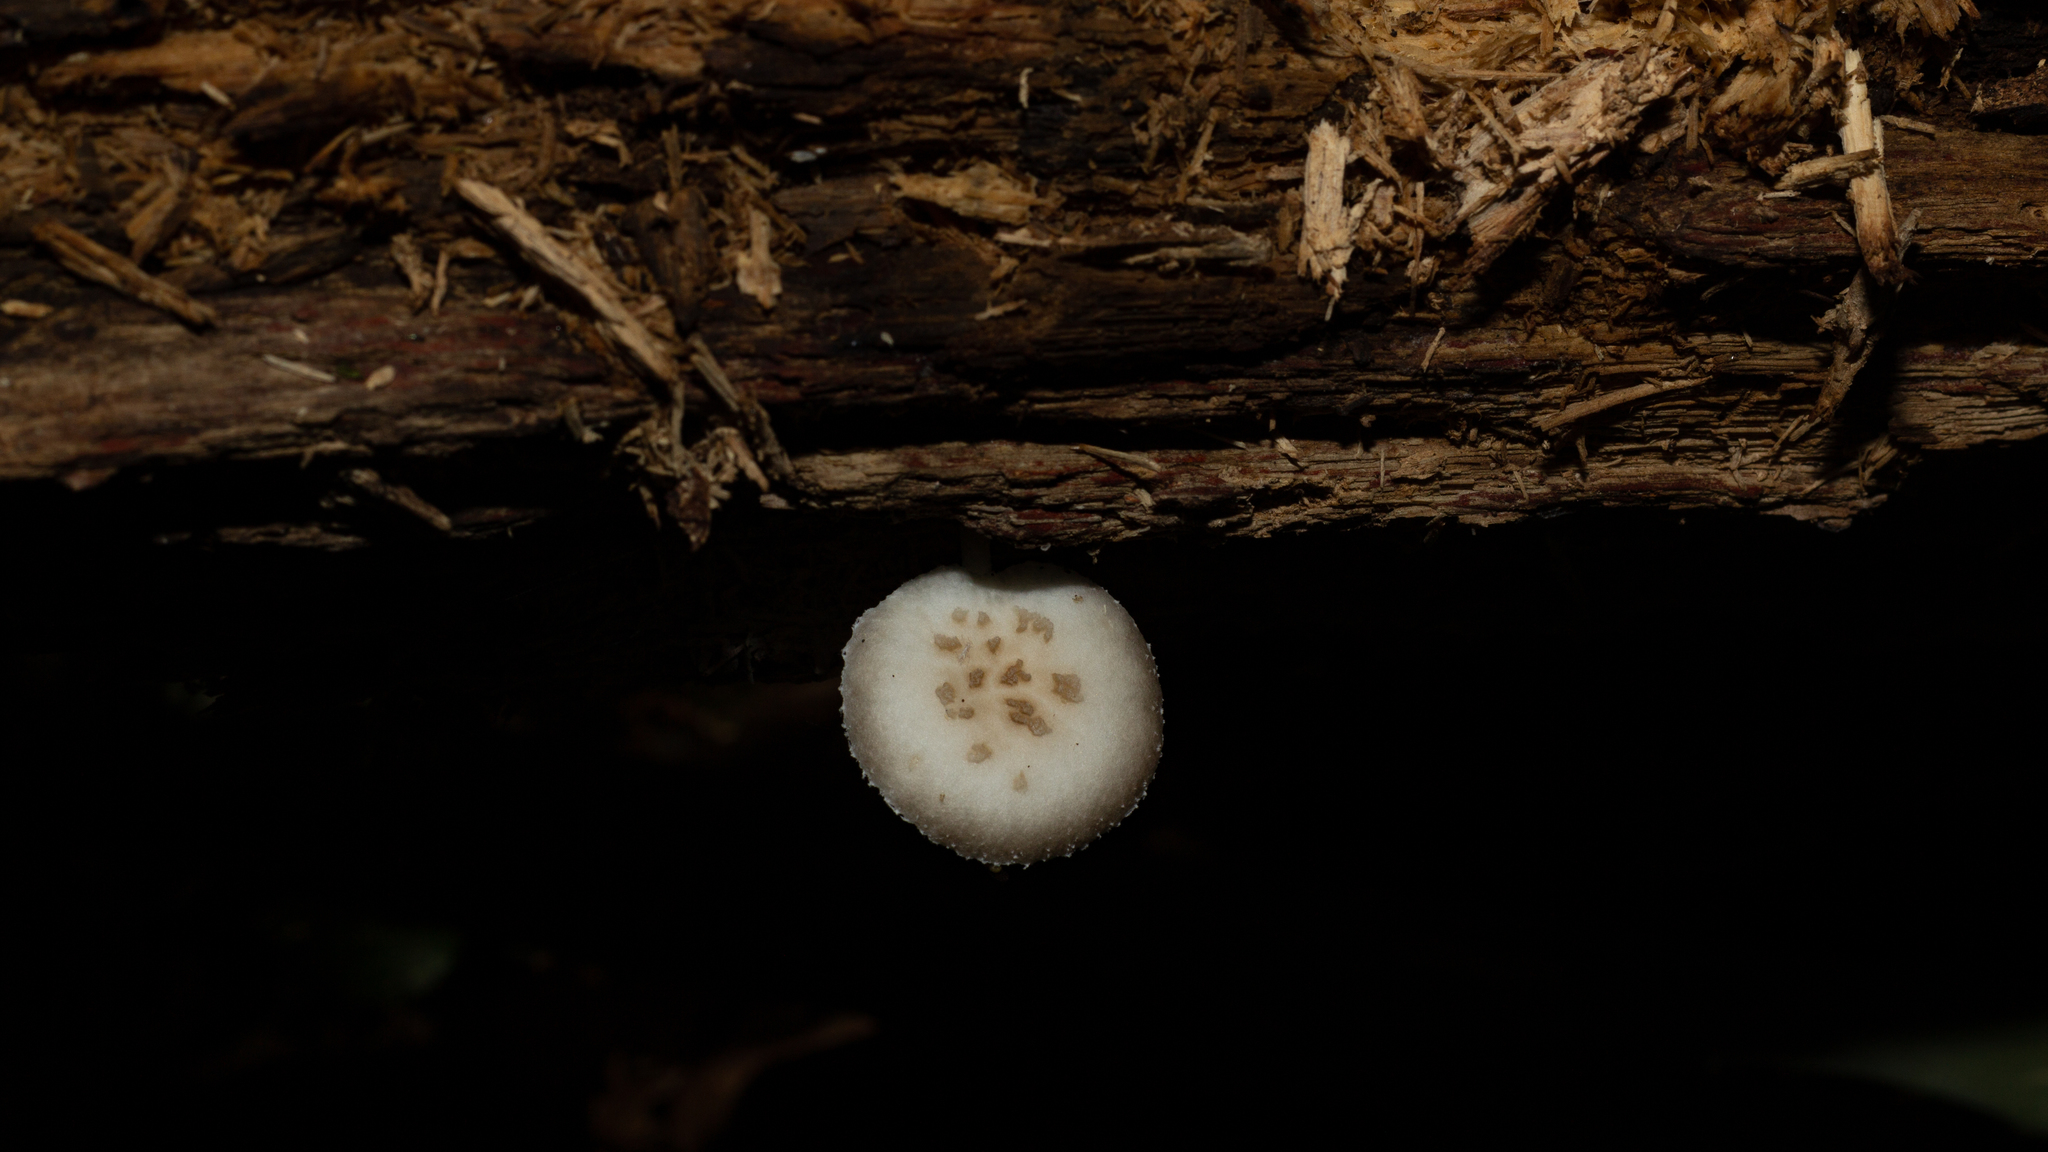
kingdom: Fungi
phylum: Basidiomycota
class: Agaricomycetes
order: Agaricales
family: Physalacriaceae
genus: Oudemansiella
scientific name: Oudemansiella cubensis
